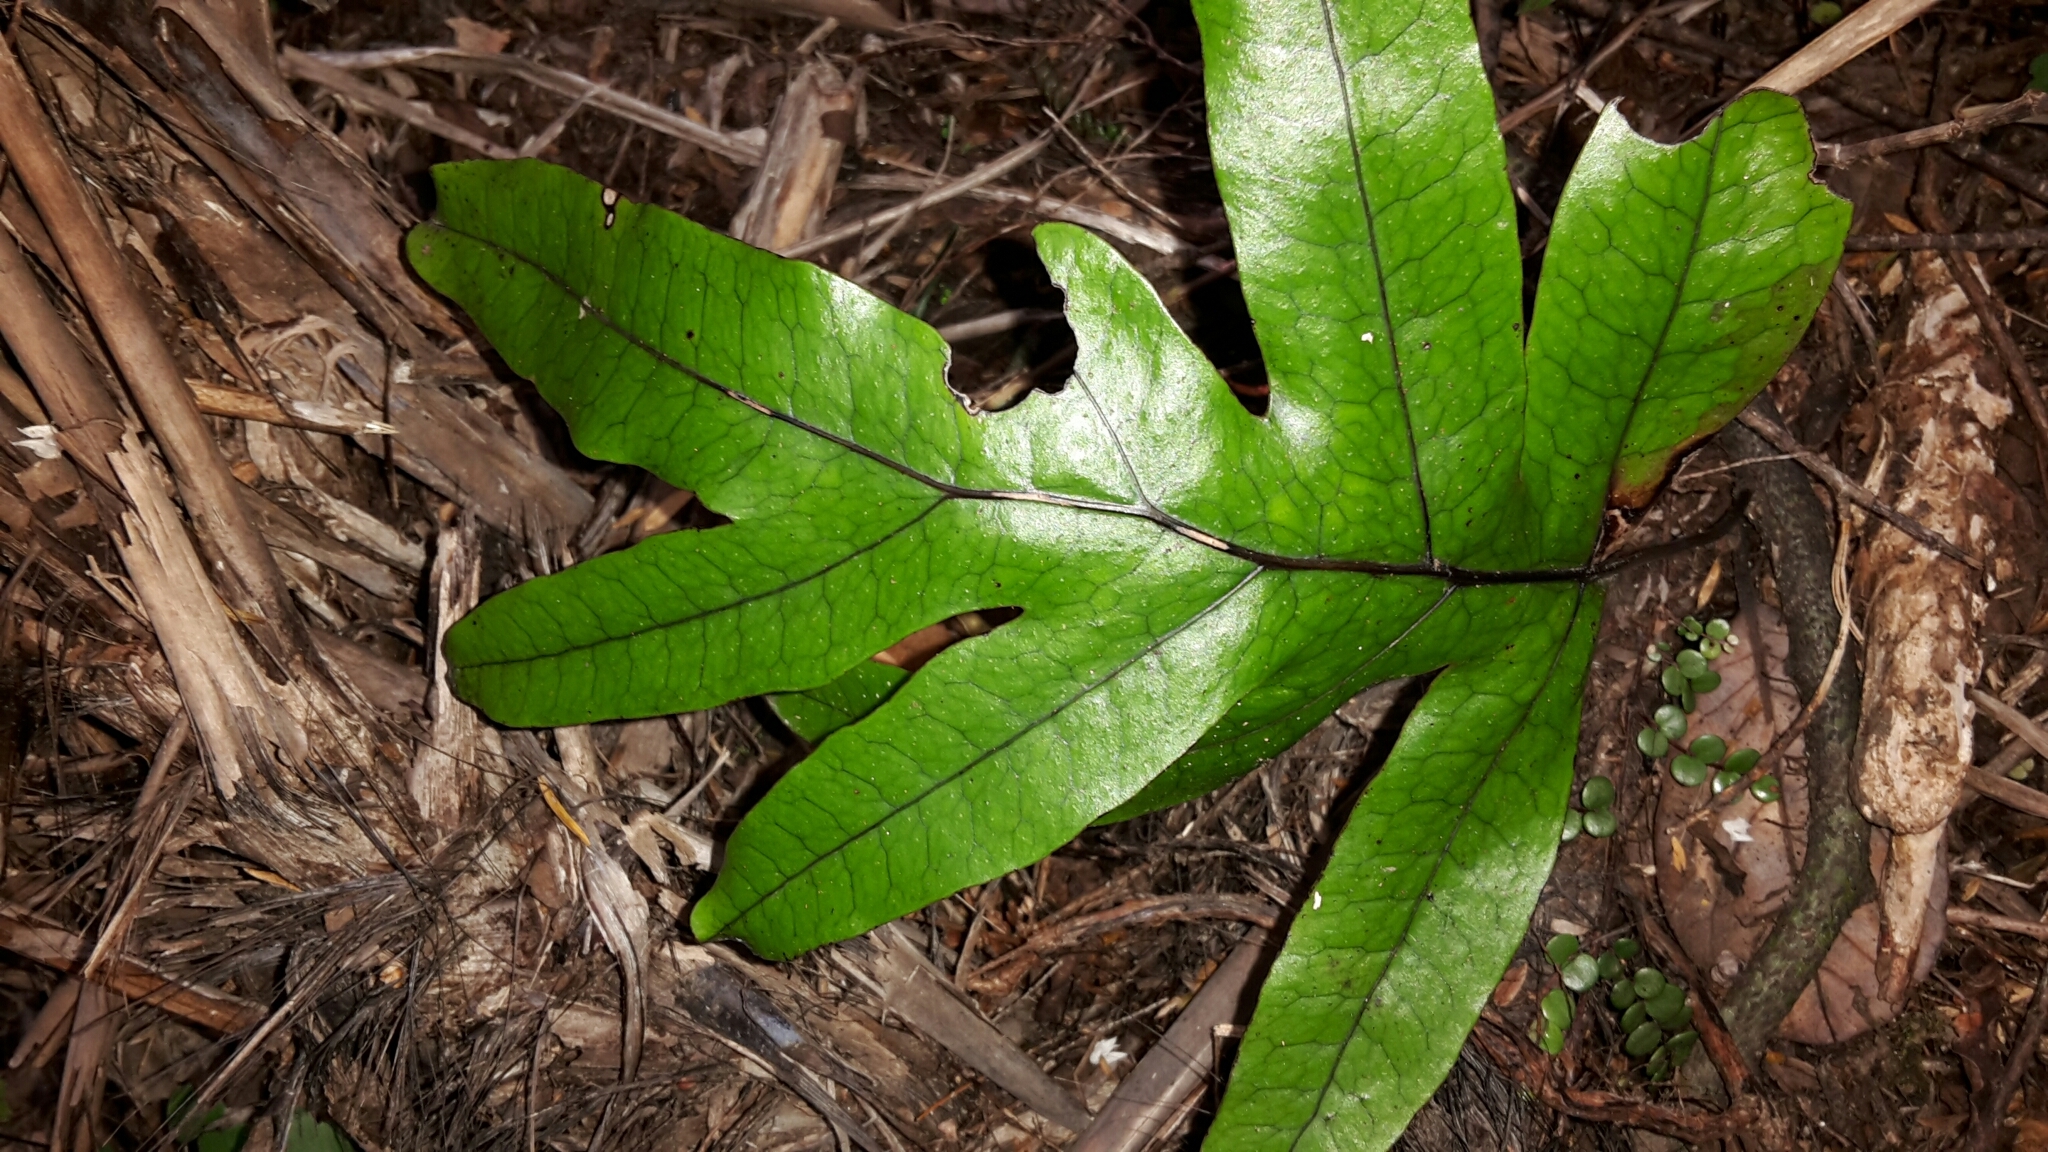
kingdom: Plantae
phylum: Tracheophyta
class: Polypodiopsida
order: Polypodiales
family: Polypodiaceae
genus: Lecanopteris
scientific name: Lecanopteris pustulata
